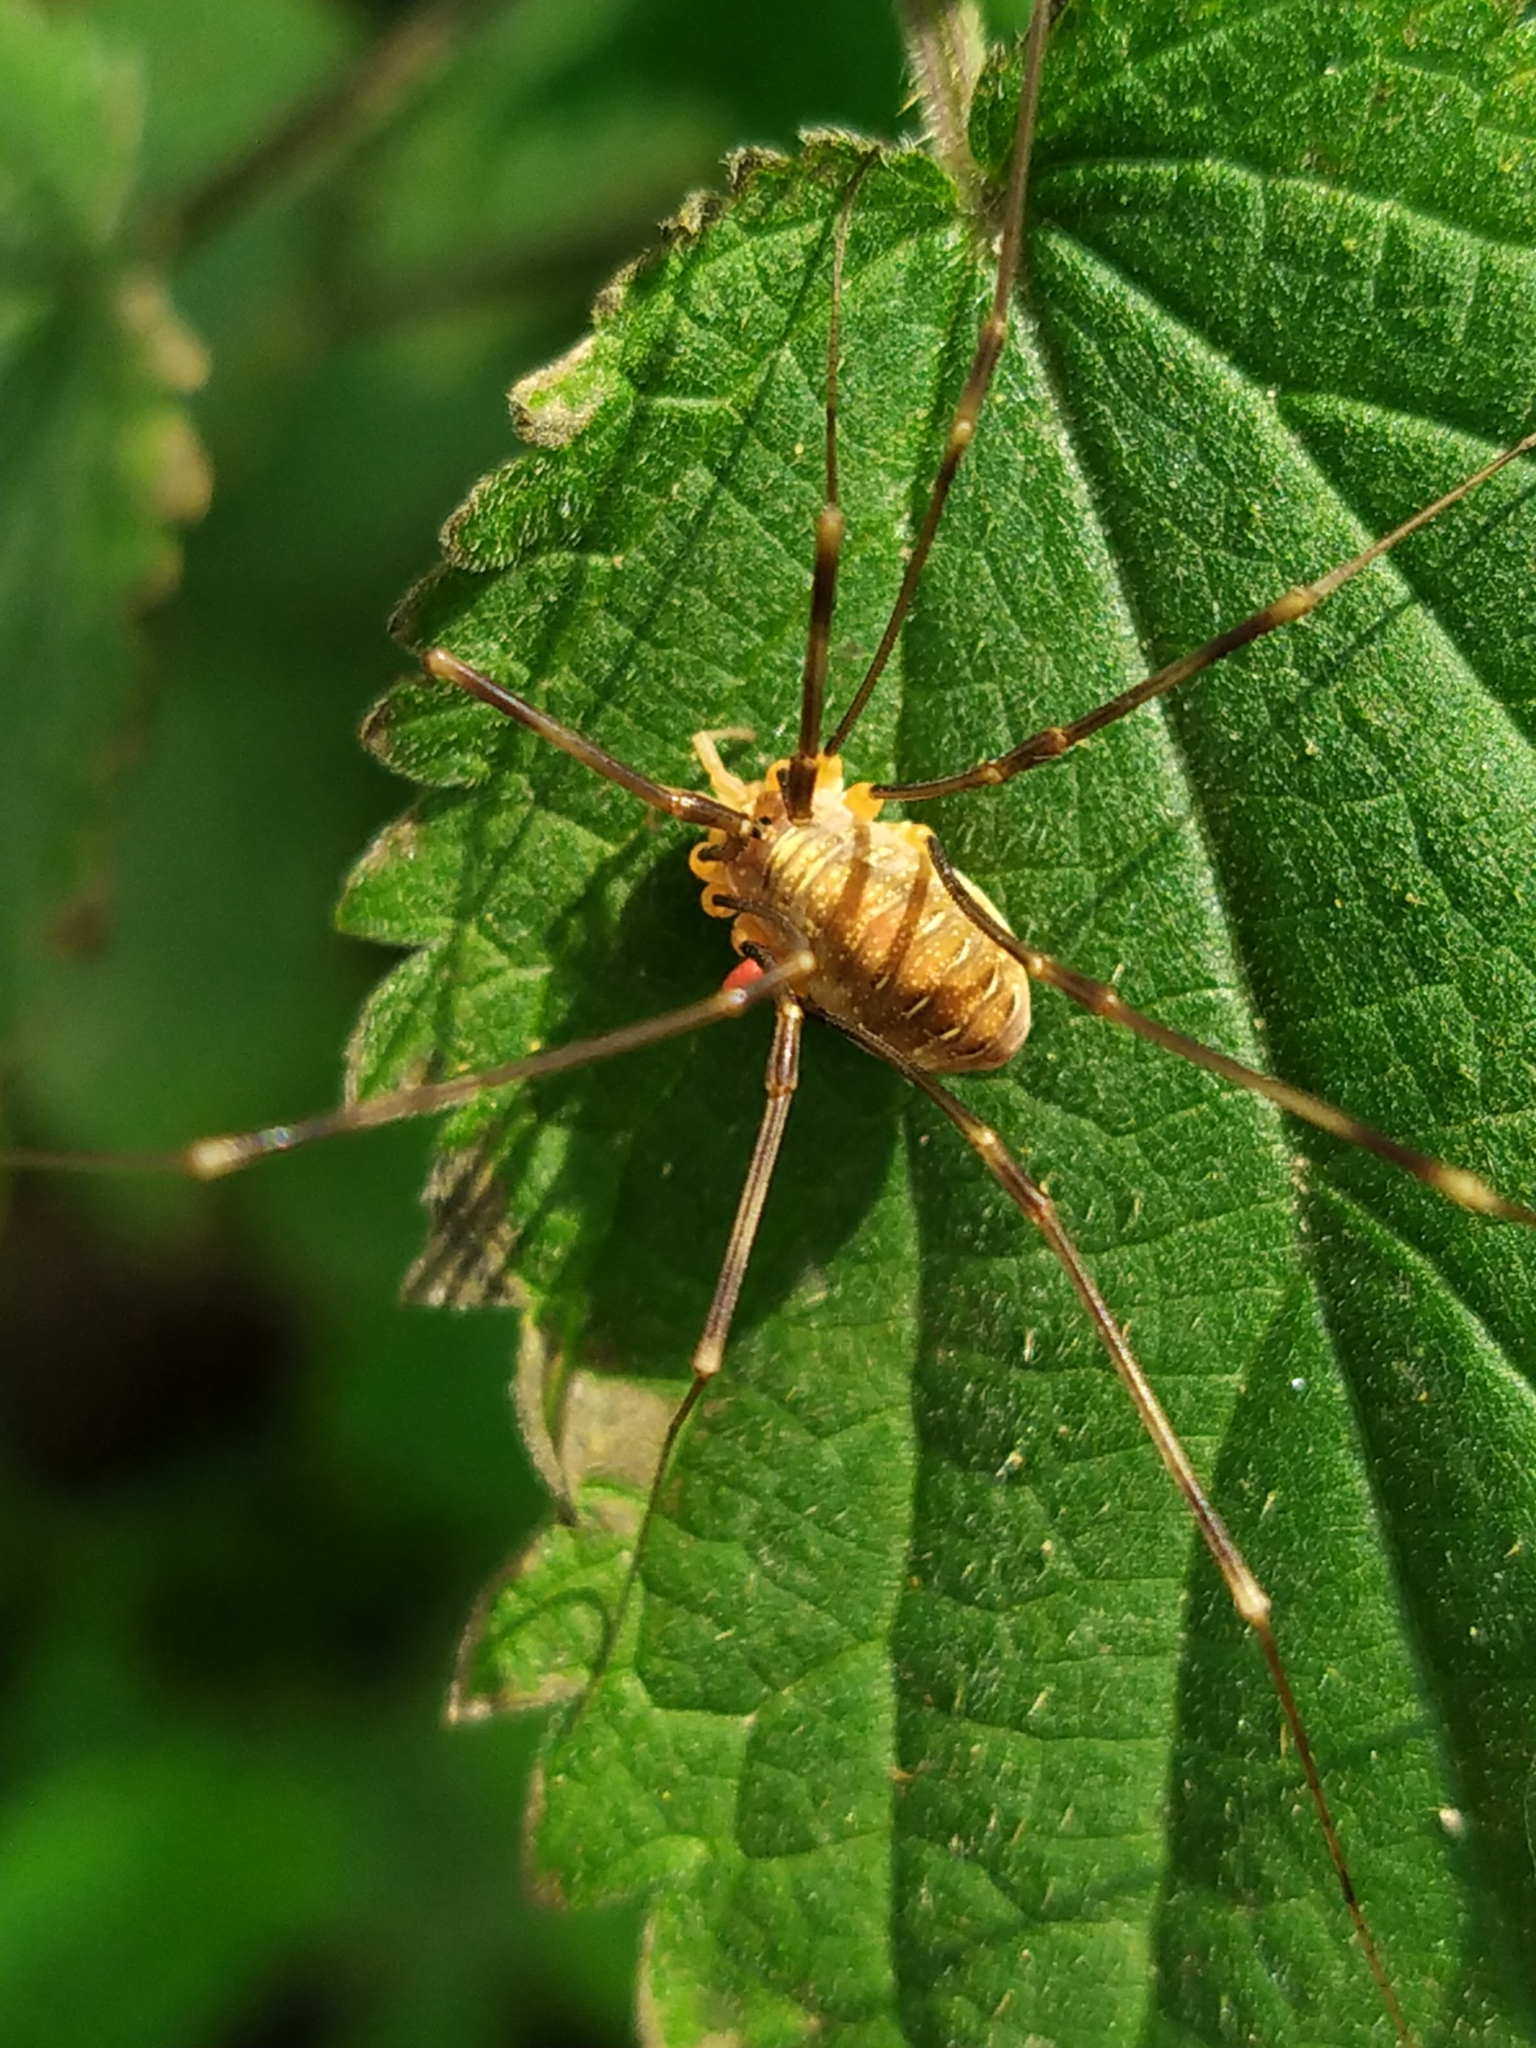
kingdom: Animalia
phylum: Arthropoda
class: Arachnida
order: Opiliones
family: Phalangiidae
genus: Opilio
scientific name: Opilio canestrinii
